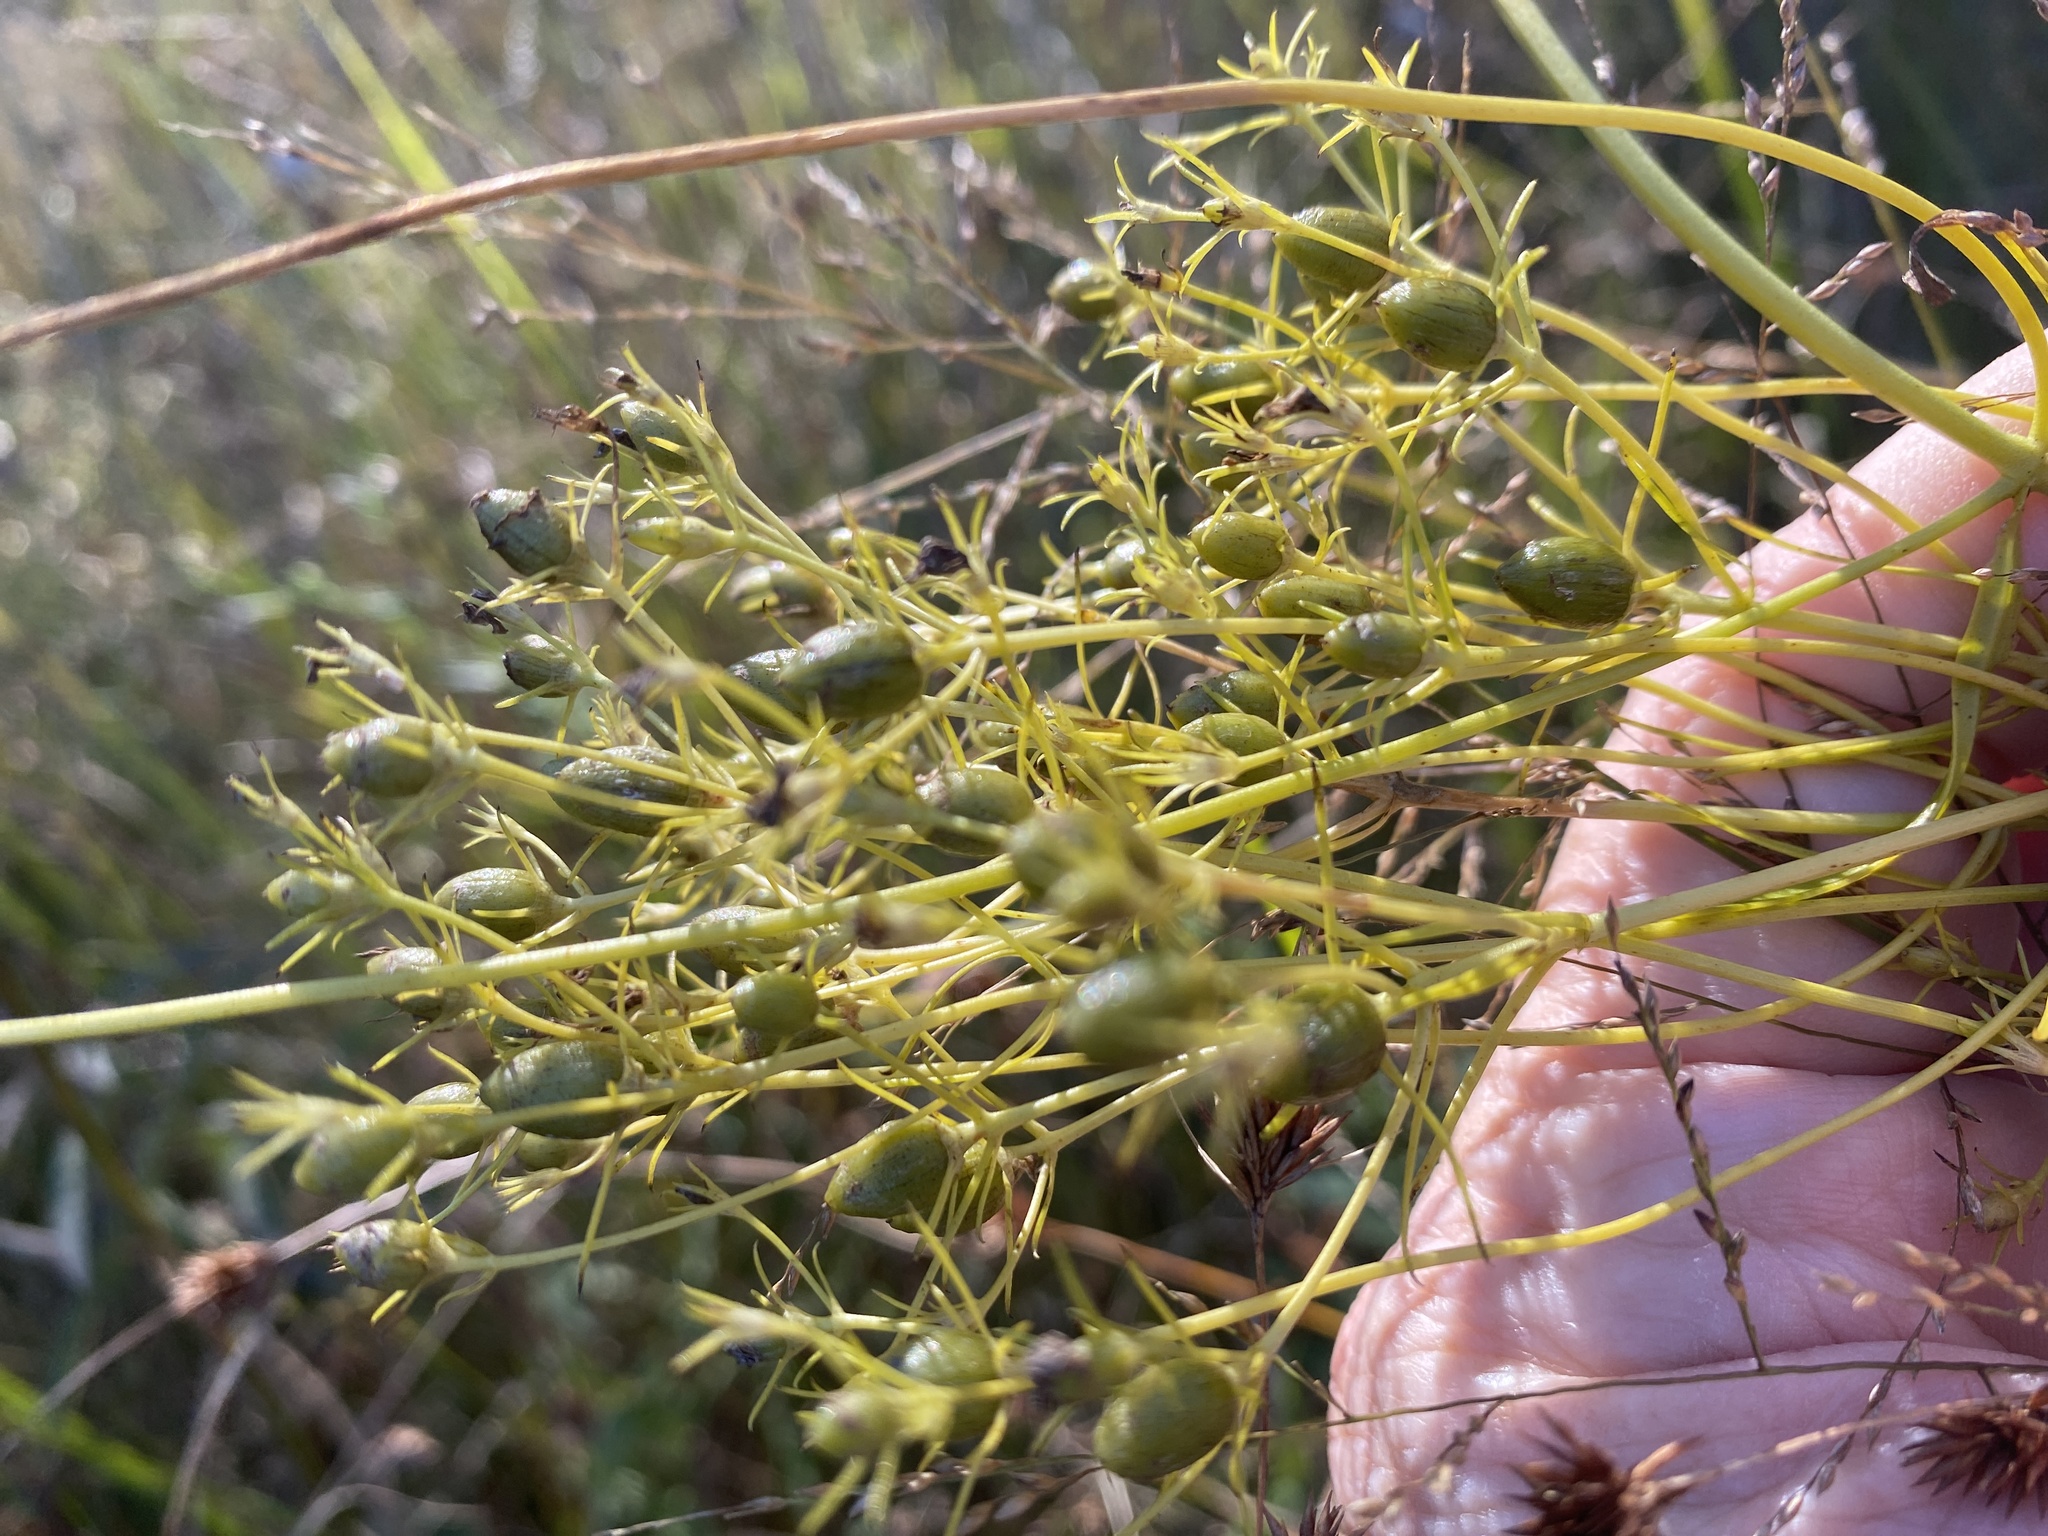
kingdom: Plantae
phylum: Tracheophyta
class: Magnoliopsida
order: Gentianales
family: Gentianaceae
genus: Sabatia
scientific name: Sabatia kennedyana
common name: Plymouth gentian
